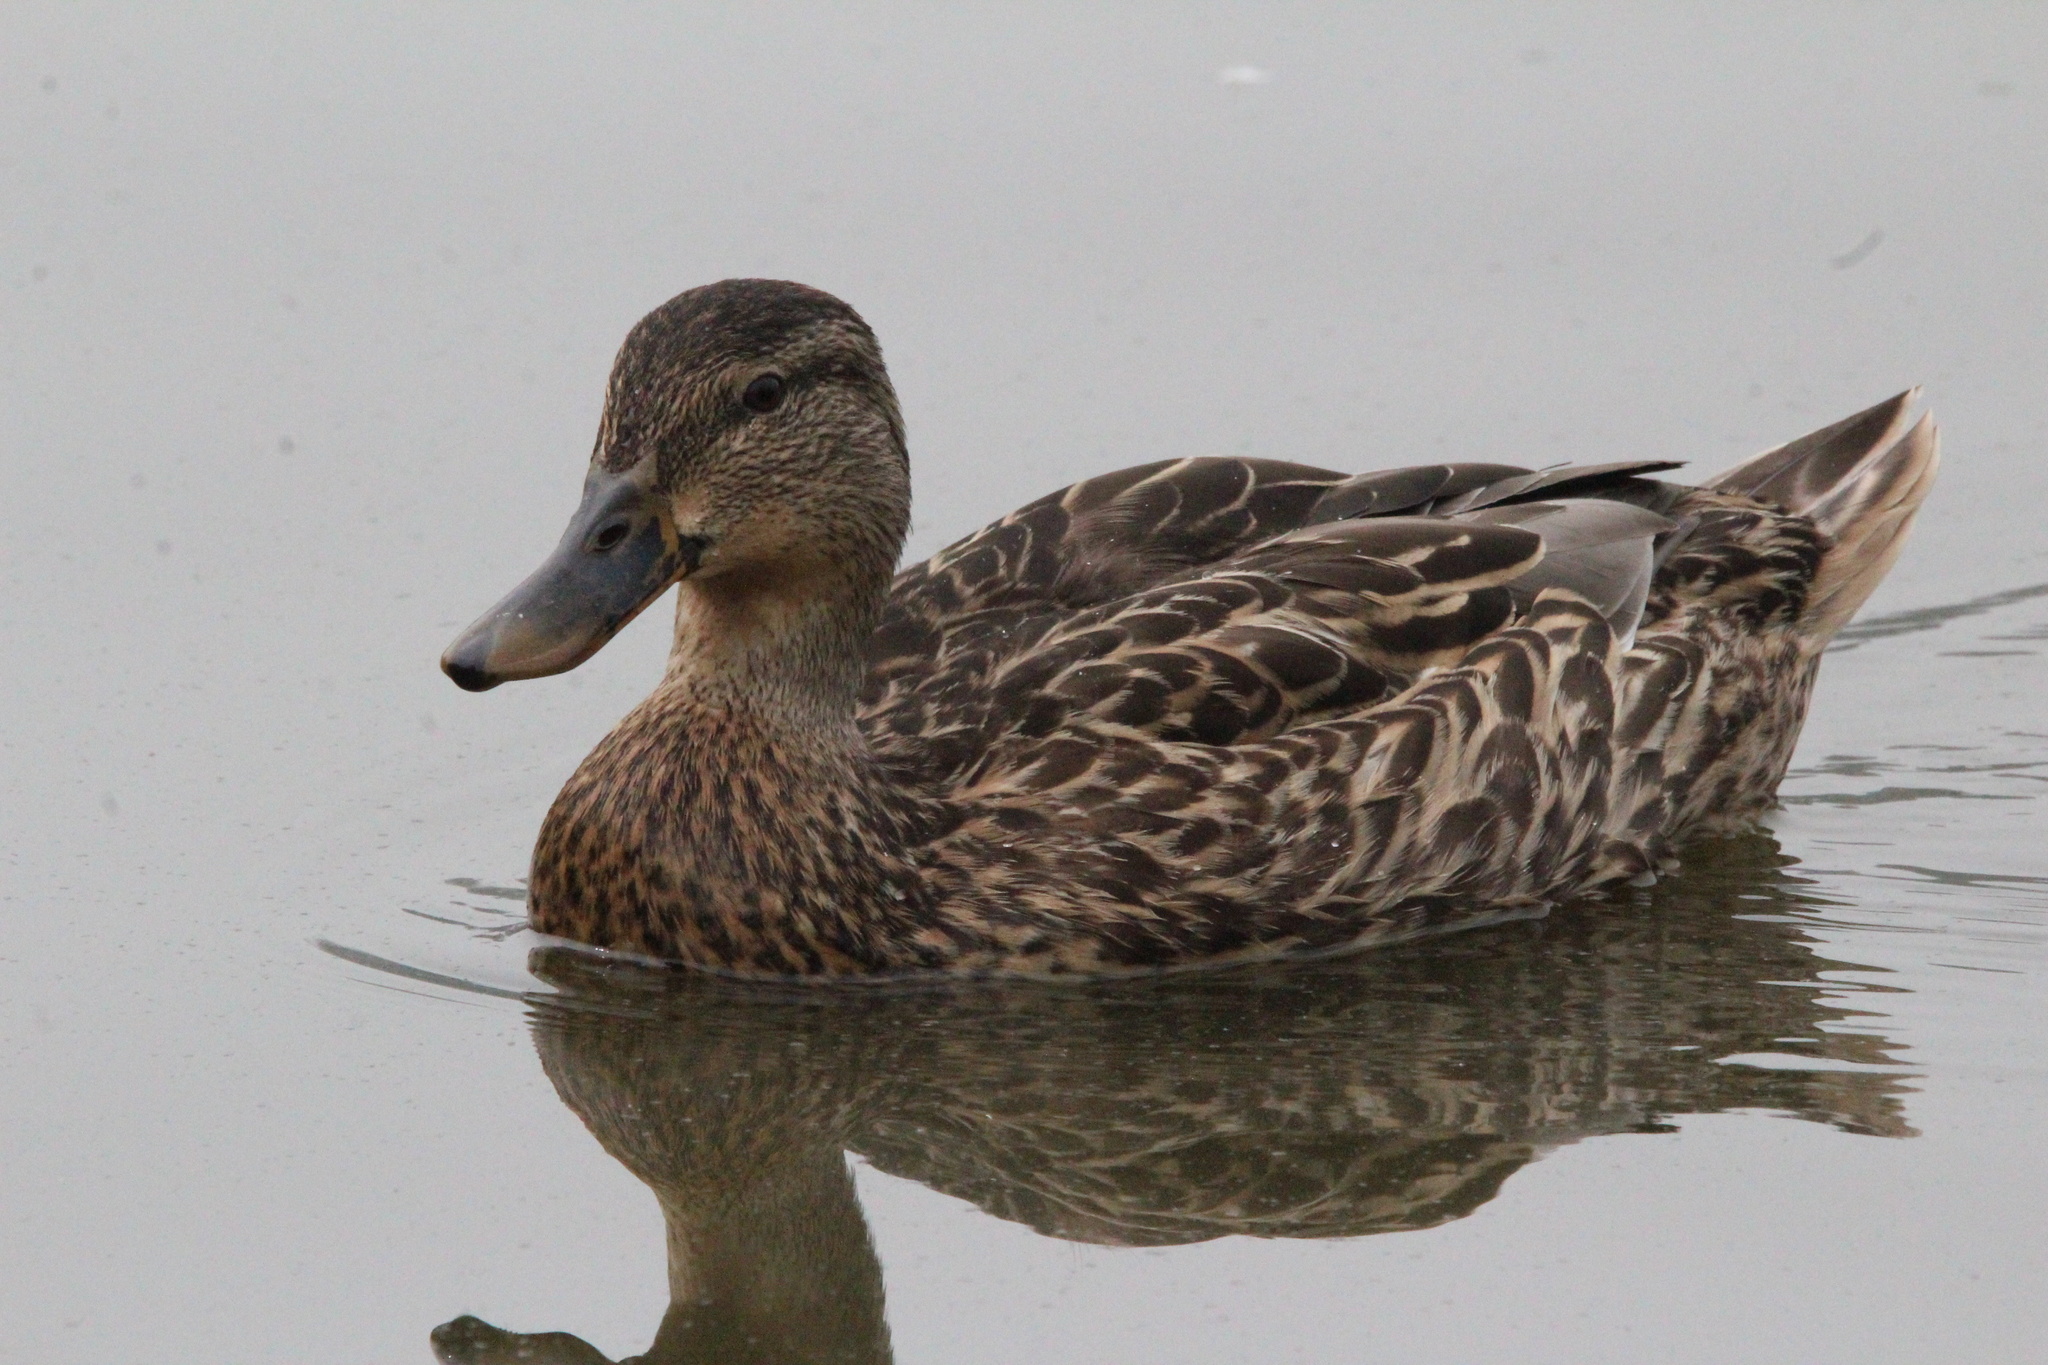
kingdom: Animalia
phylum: Chordata
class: Aves
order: Anseriformes
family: Anatidae
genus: Anas
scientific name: Anas platyrhynchos
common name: Mallard
